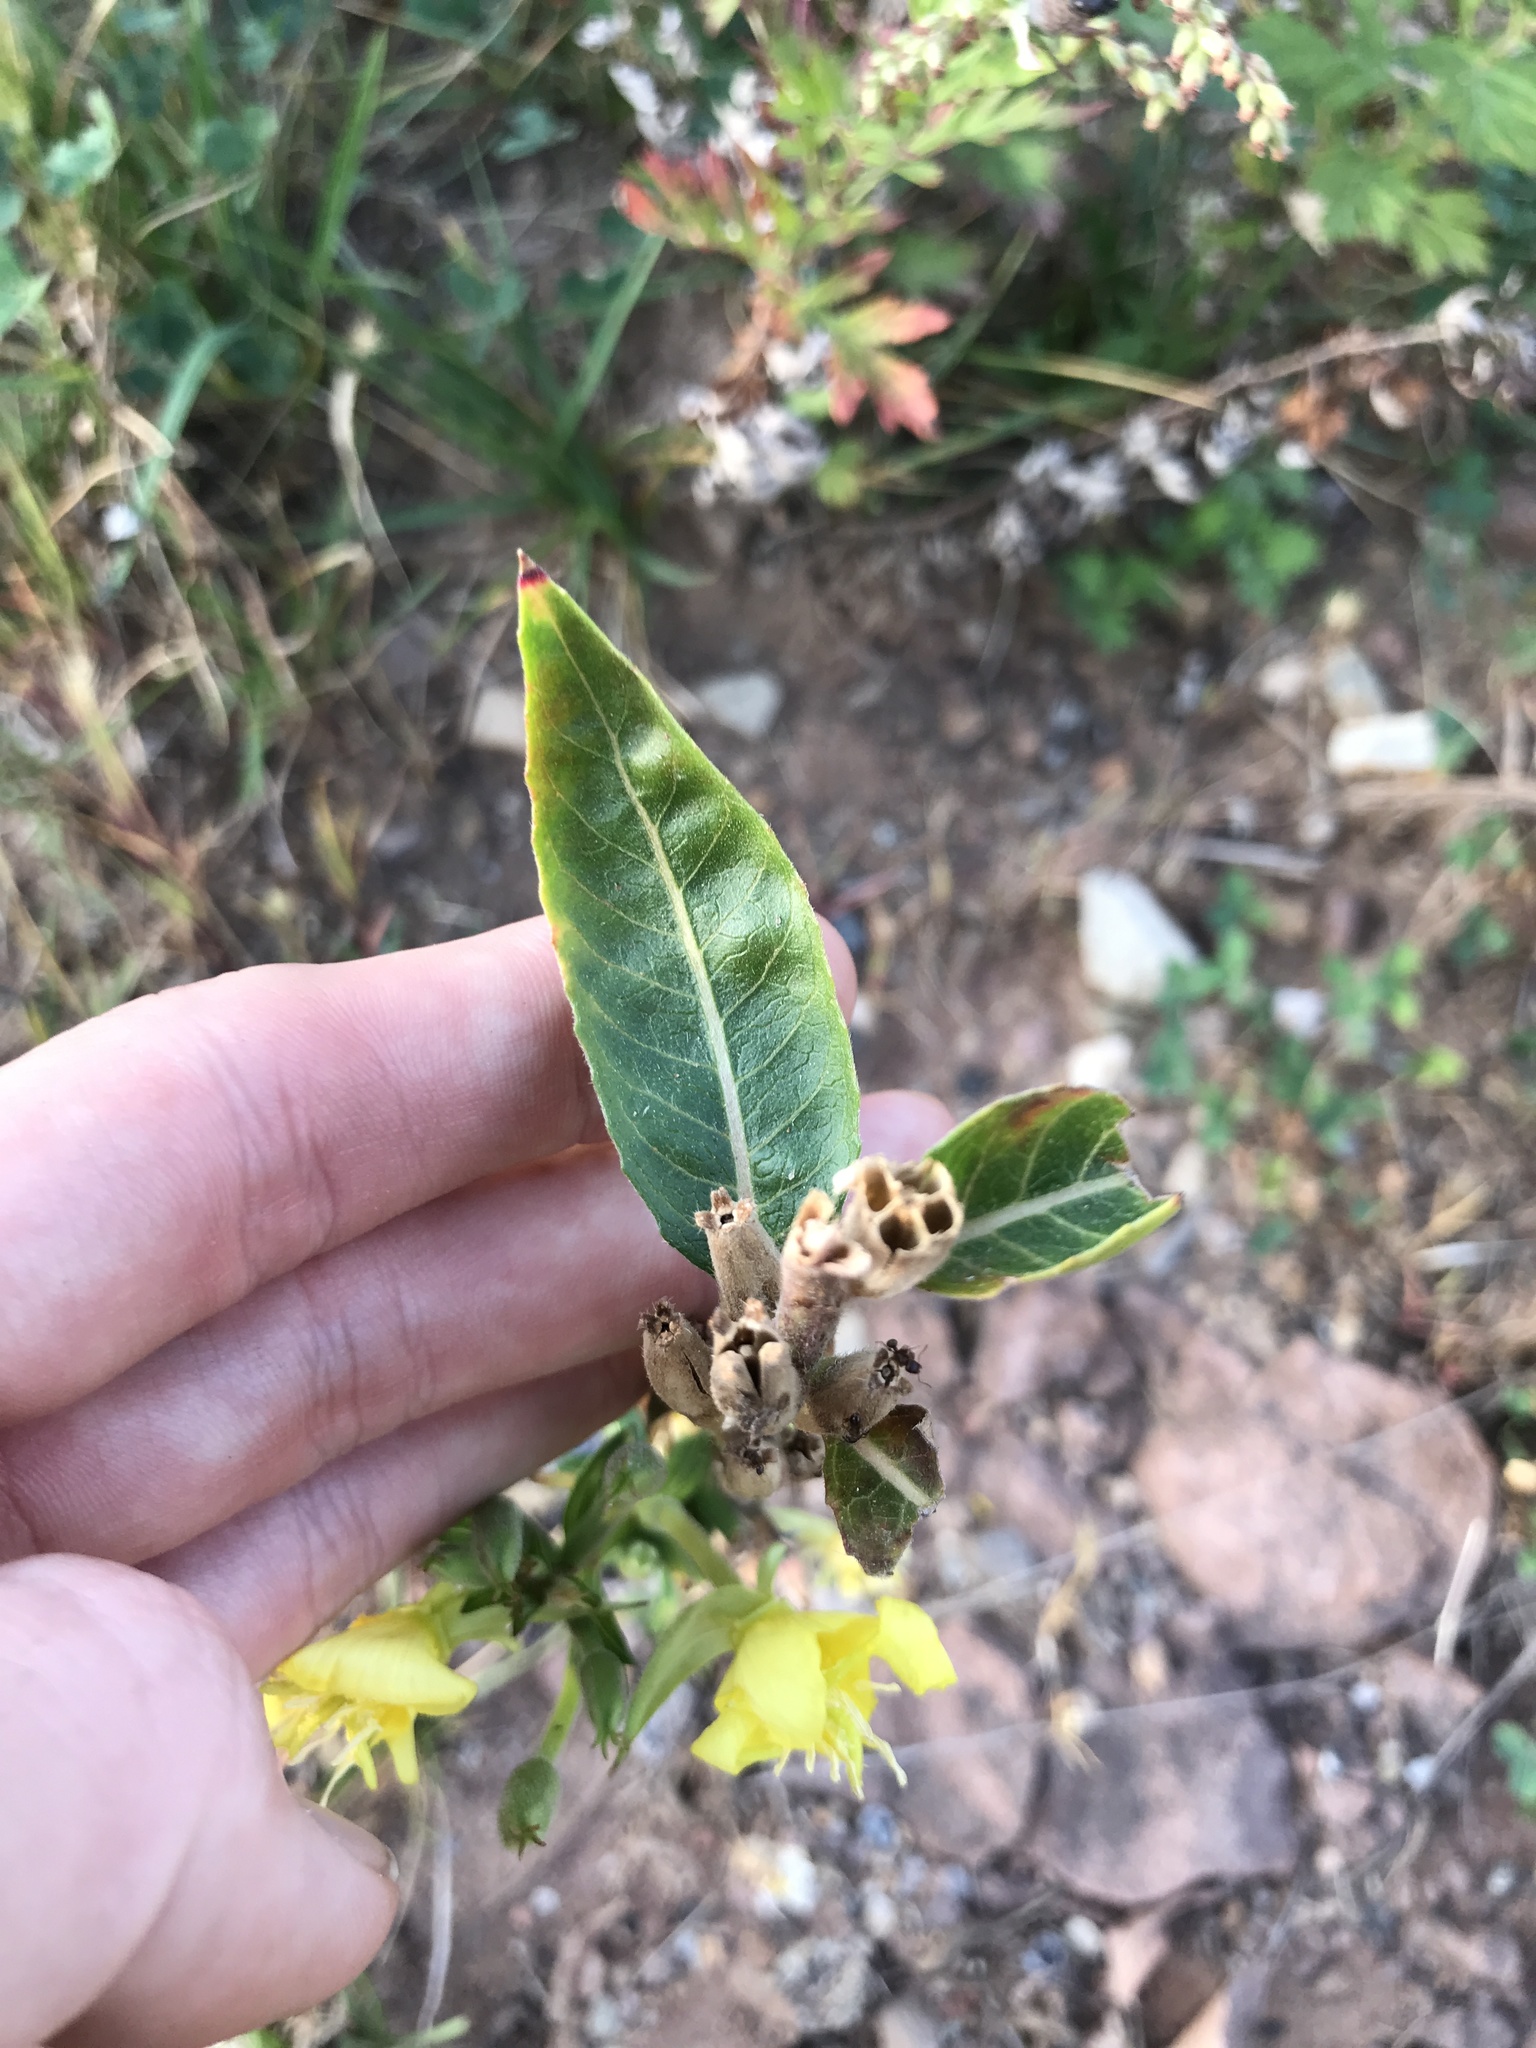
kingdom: Plantae
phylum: Tracheophyta
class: Magnoliopsida
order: Myrtales
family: Onagraceae
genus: Oenothera
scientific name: Oenothera biennis
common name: Common evening-primrose
